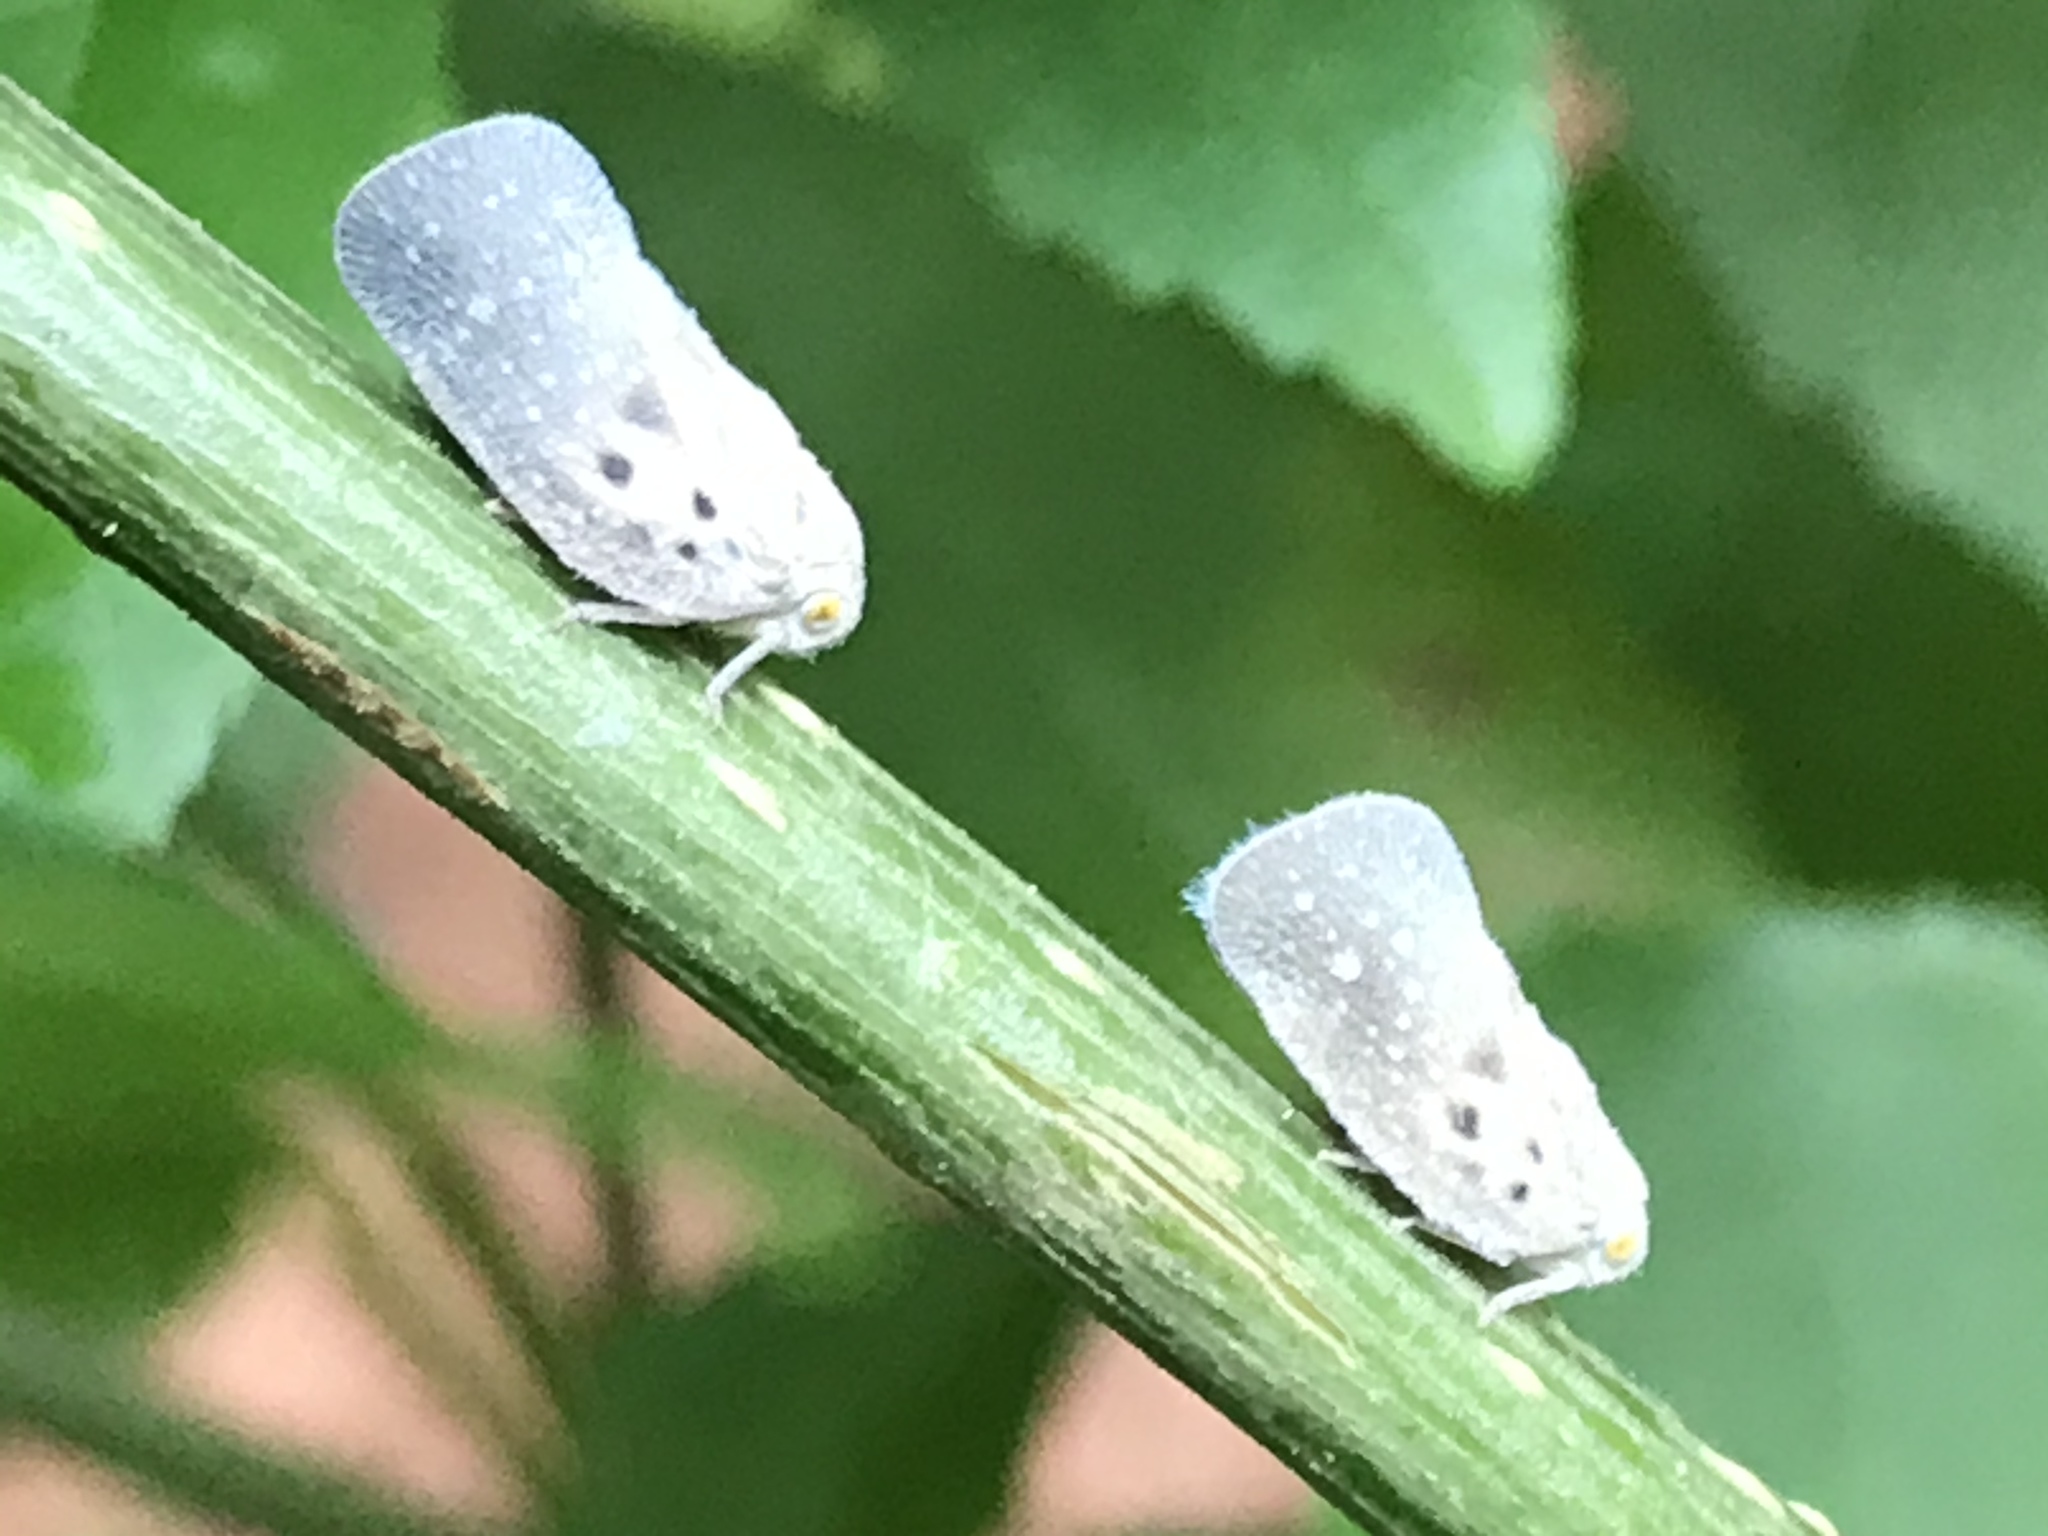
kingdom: Animalia
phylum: Arthropoda
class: Insecta
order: Hemiptera
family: Flatidae
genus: Metcalfa
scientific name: Metcalfa pruinosa
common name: Citrus flatid planthopper
